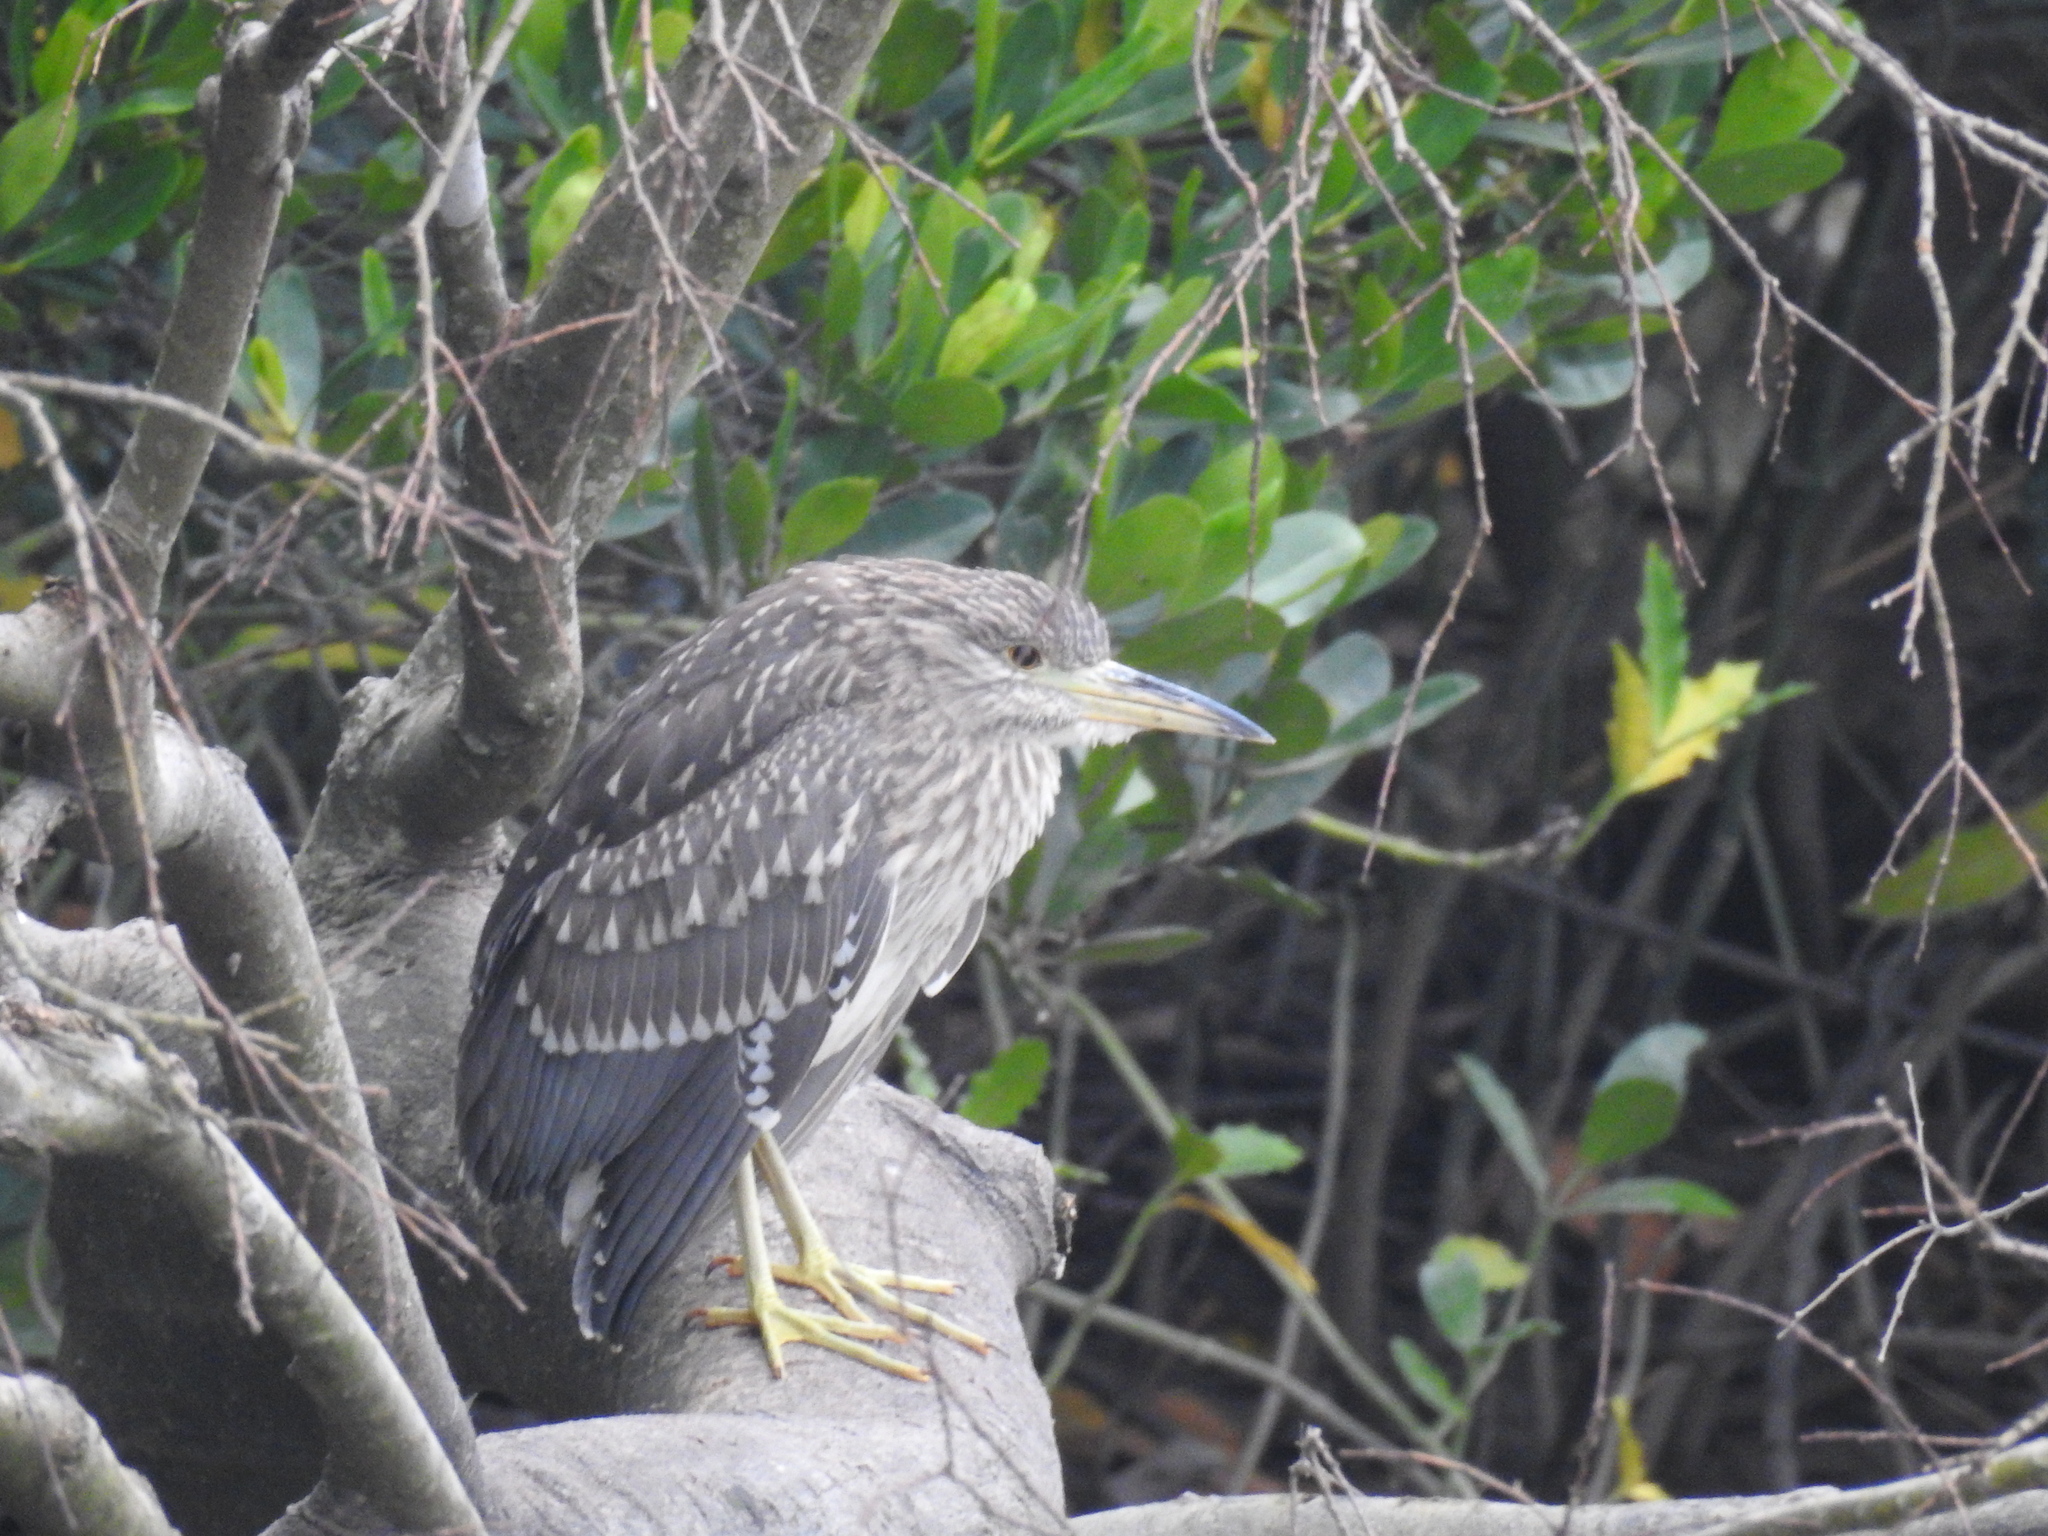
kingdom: Animalia
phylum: Chordata
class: Aves
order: Pelecaniformes
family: Ardeidae
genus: Nycticorax
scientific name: Nycticorax nycticorax
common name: Black-crowned night heron
